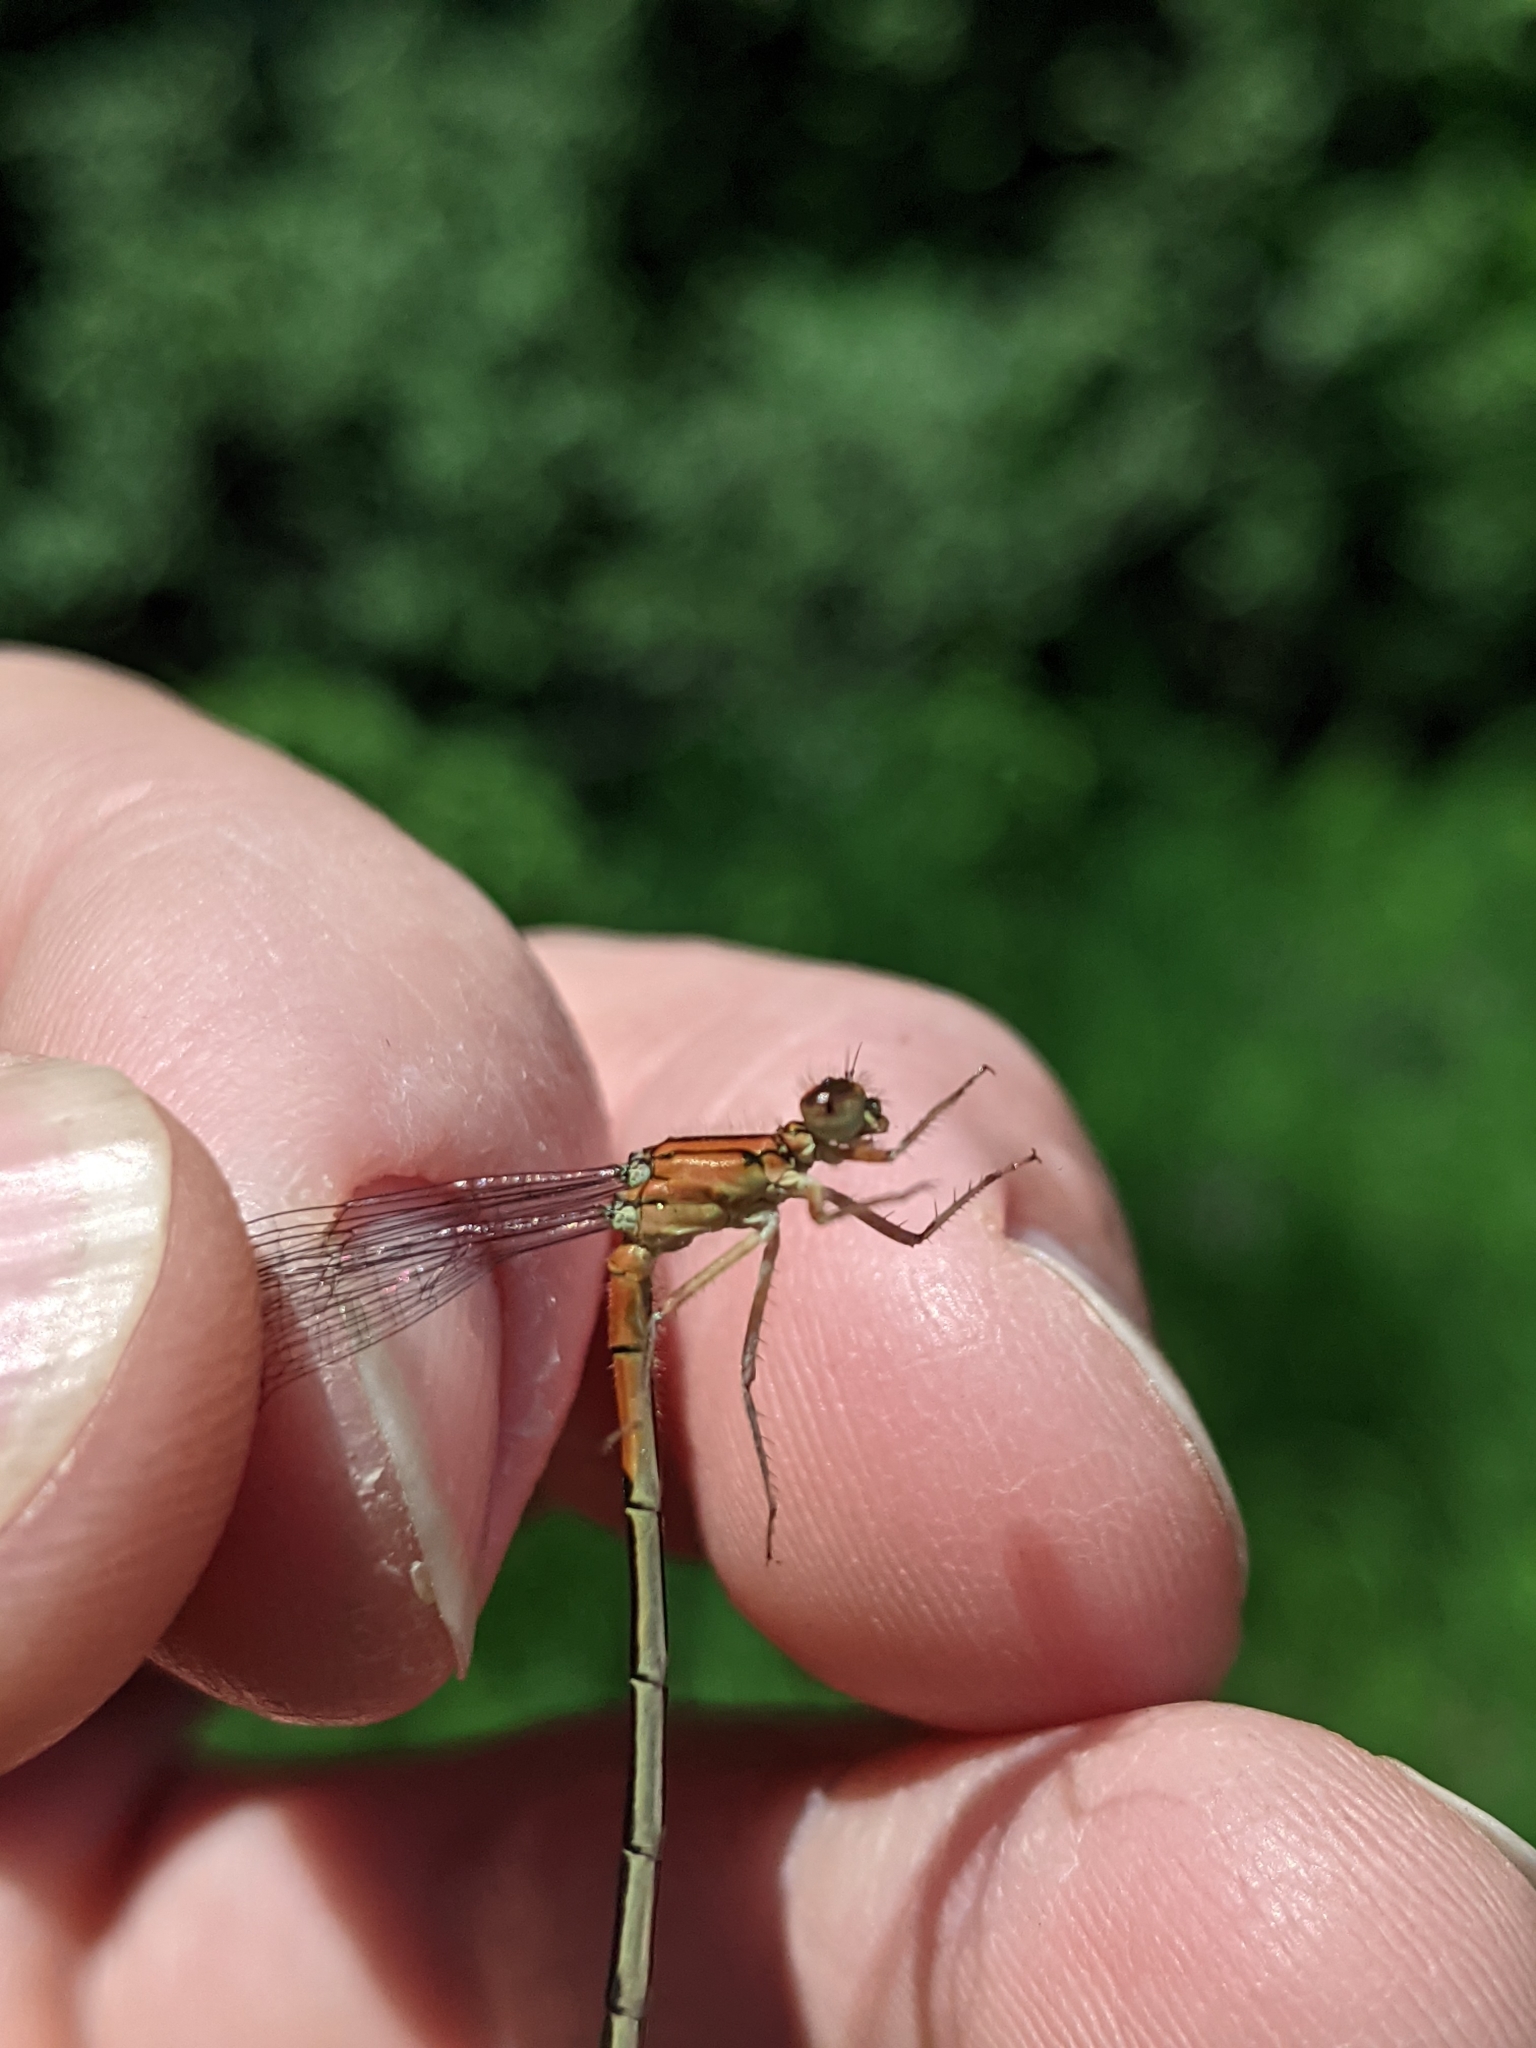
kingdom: Animalia
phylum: Arthropoda
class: Insecta
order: Odonata
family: Coenagrionidae
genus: Ischnura
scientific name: Ischnura verticalis
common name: Eastern forktail
